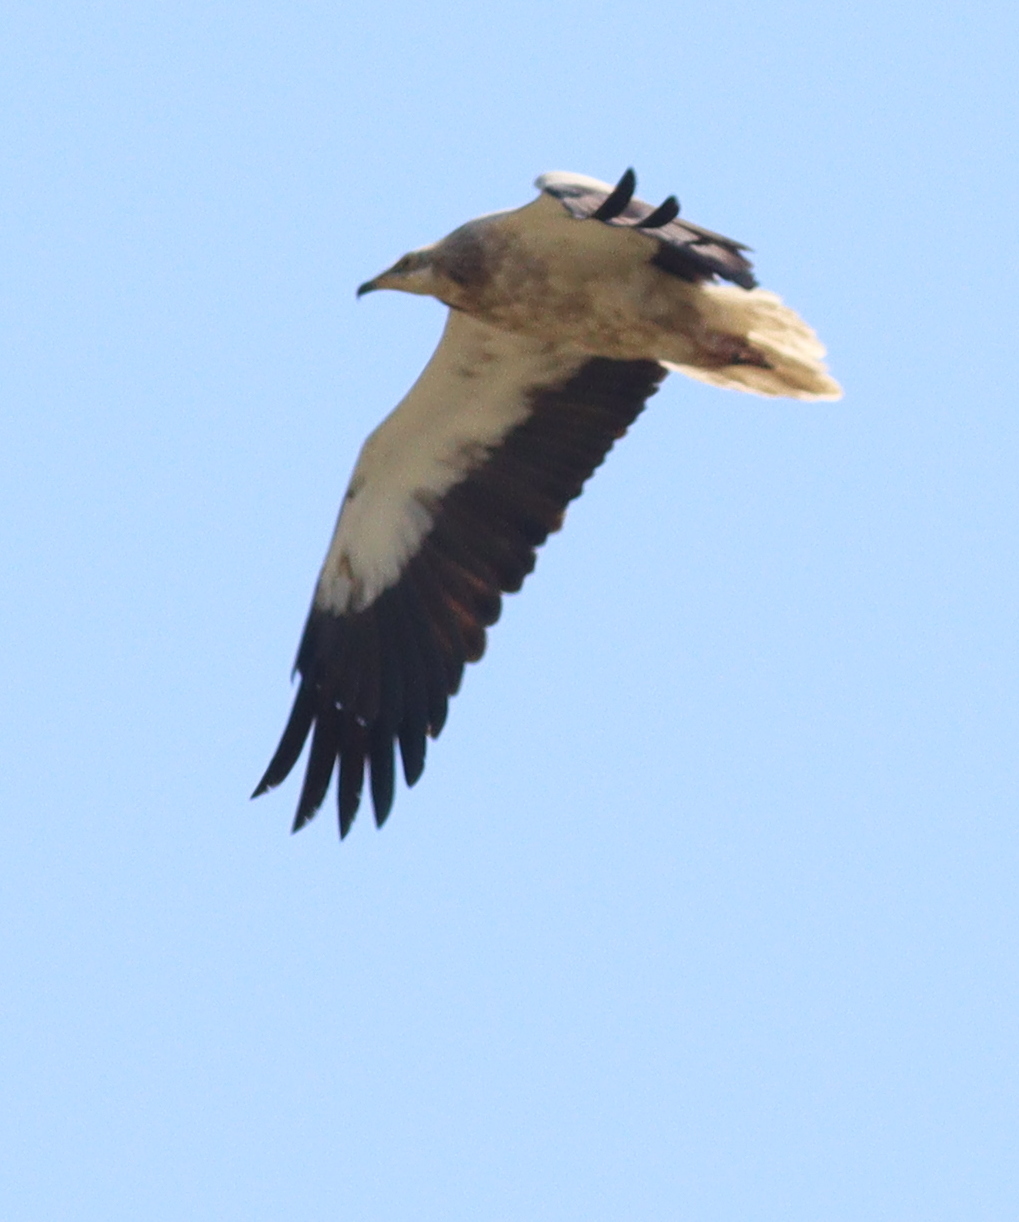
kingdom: Animalia
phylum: Chordata
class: Aves
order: Accipitriformes
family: Accipitridae
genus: Neophron
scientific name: Neophron percnopterus
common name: Egyptian vulture
